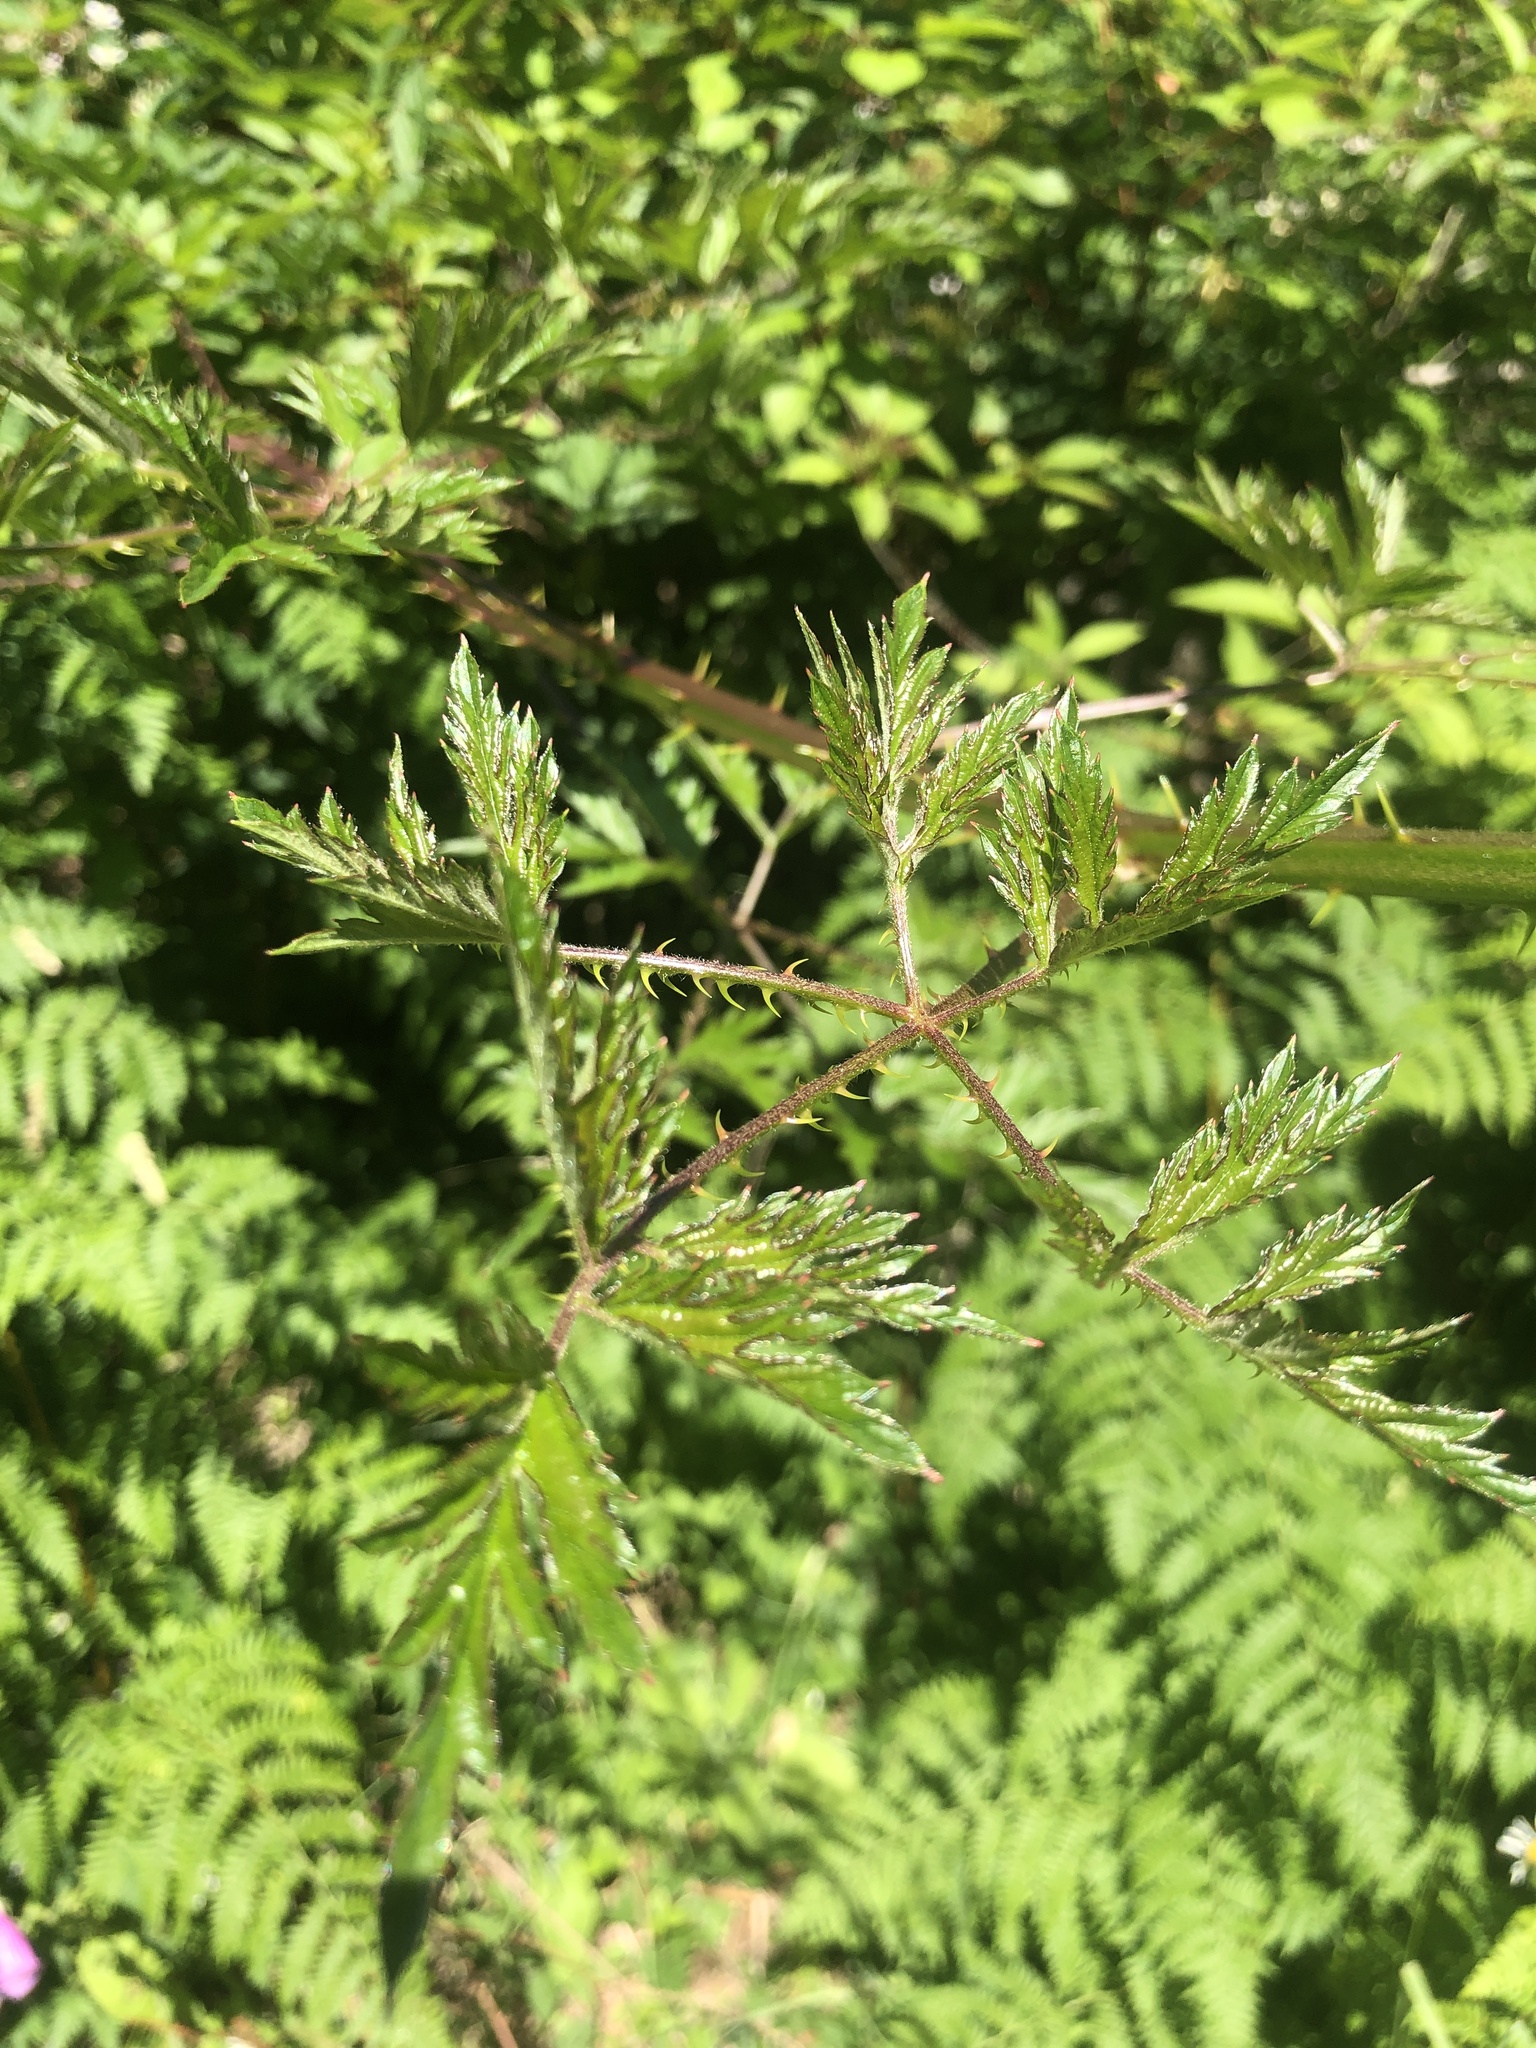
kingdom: Plantae
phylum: Tracheophyta
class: Magnoliopsida
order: Rosales
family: Rosaceae
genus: Rubus
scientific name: Rubus laciniatus
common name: Evergreen blackberry
